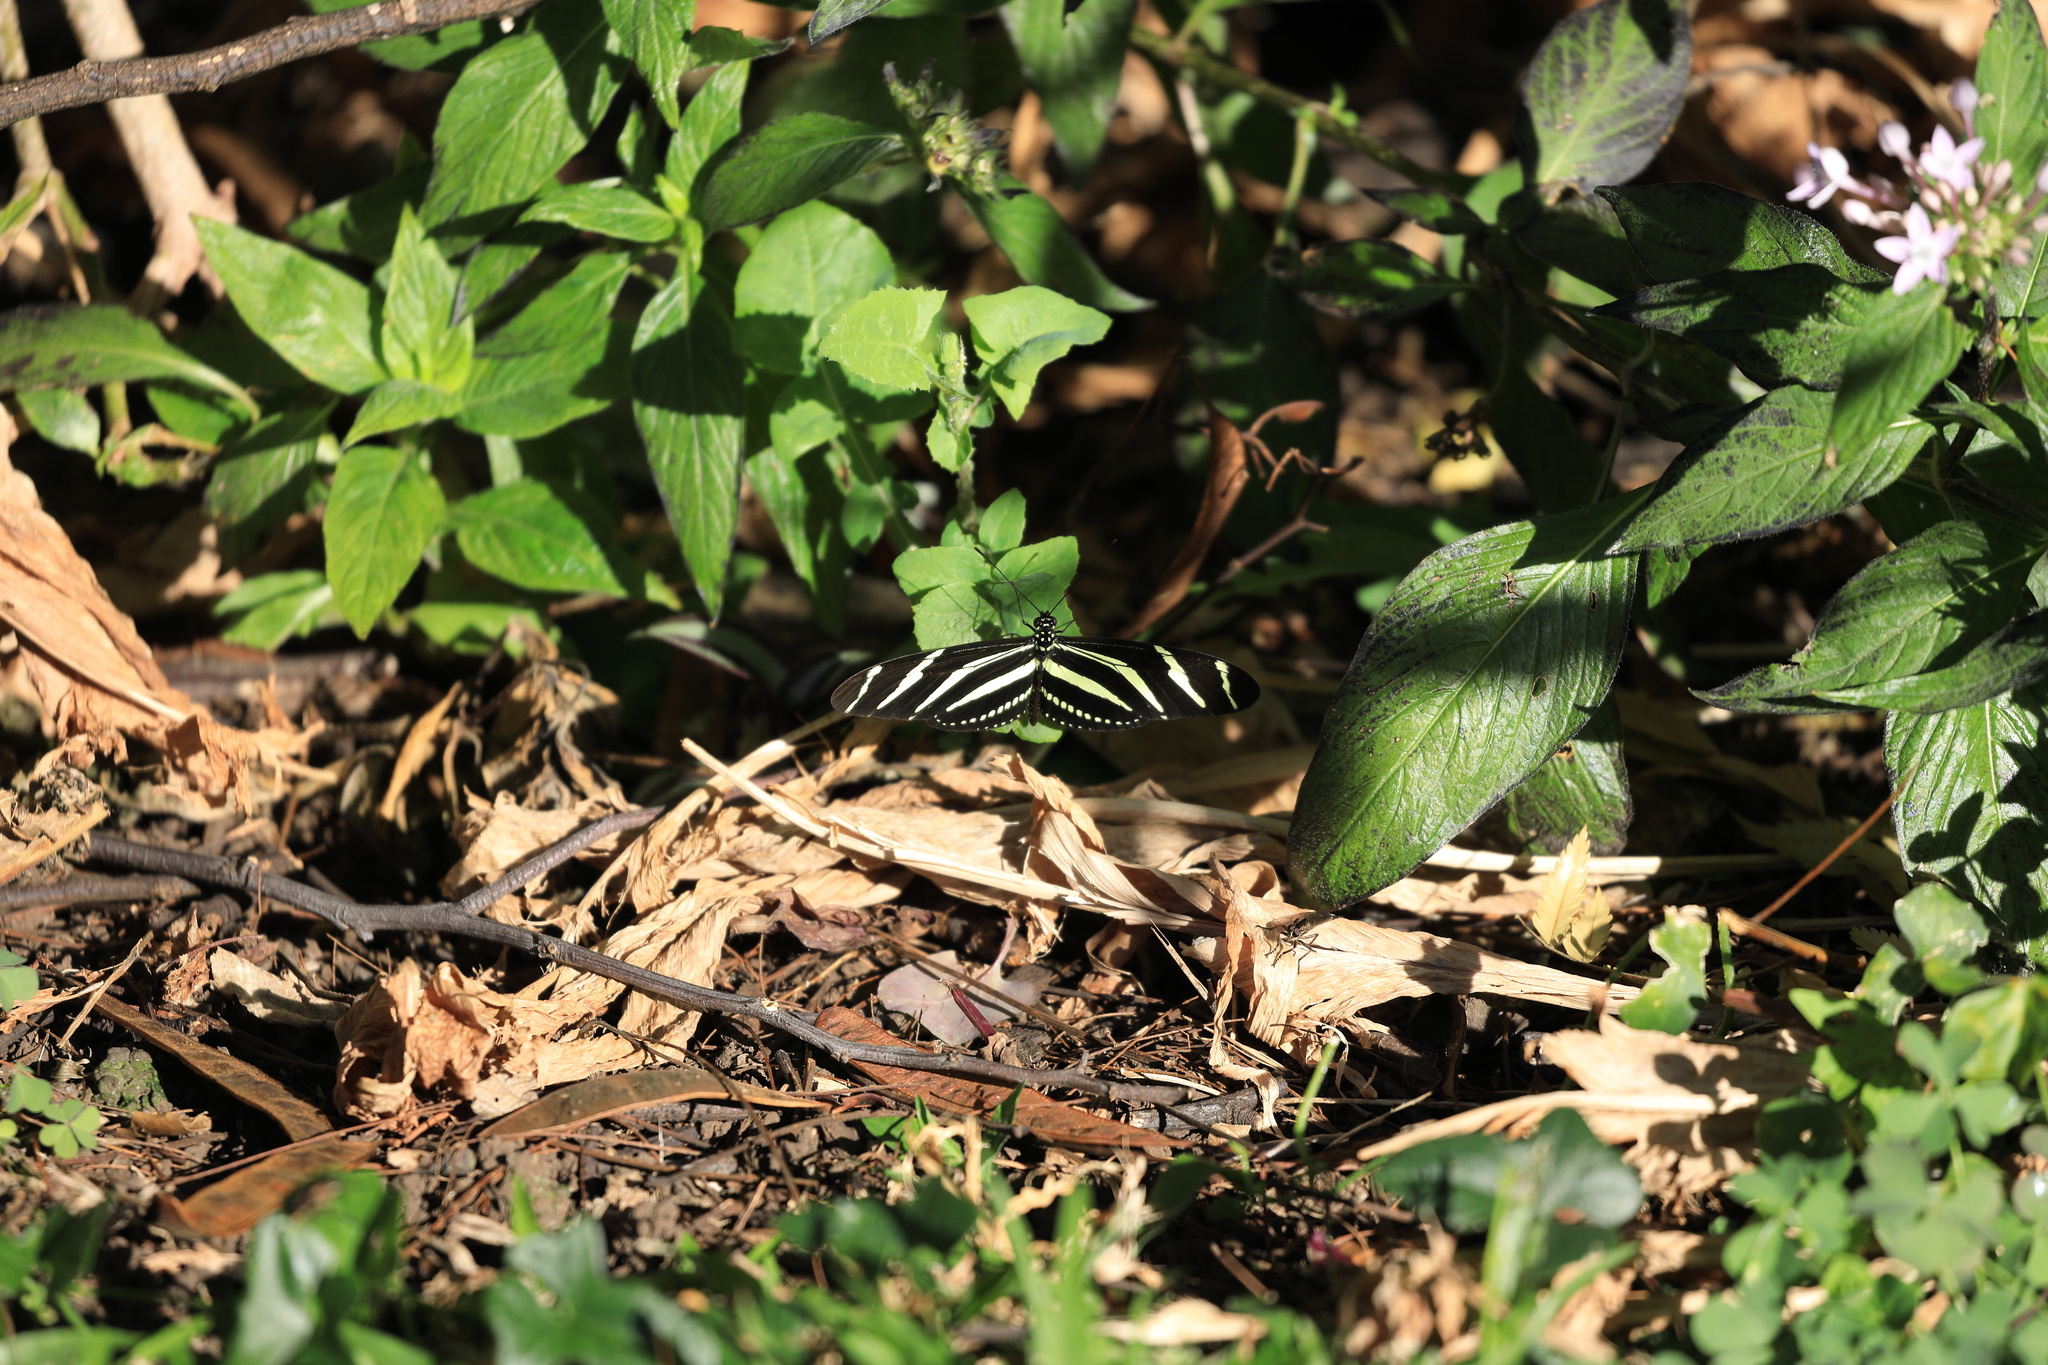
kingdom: Animalia
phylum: Arthropoda
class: Insecta
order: Lepidoptera
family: Nymphalidae
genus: Heliconius
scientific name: Heliconius charithonia
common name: Zebra long wing
